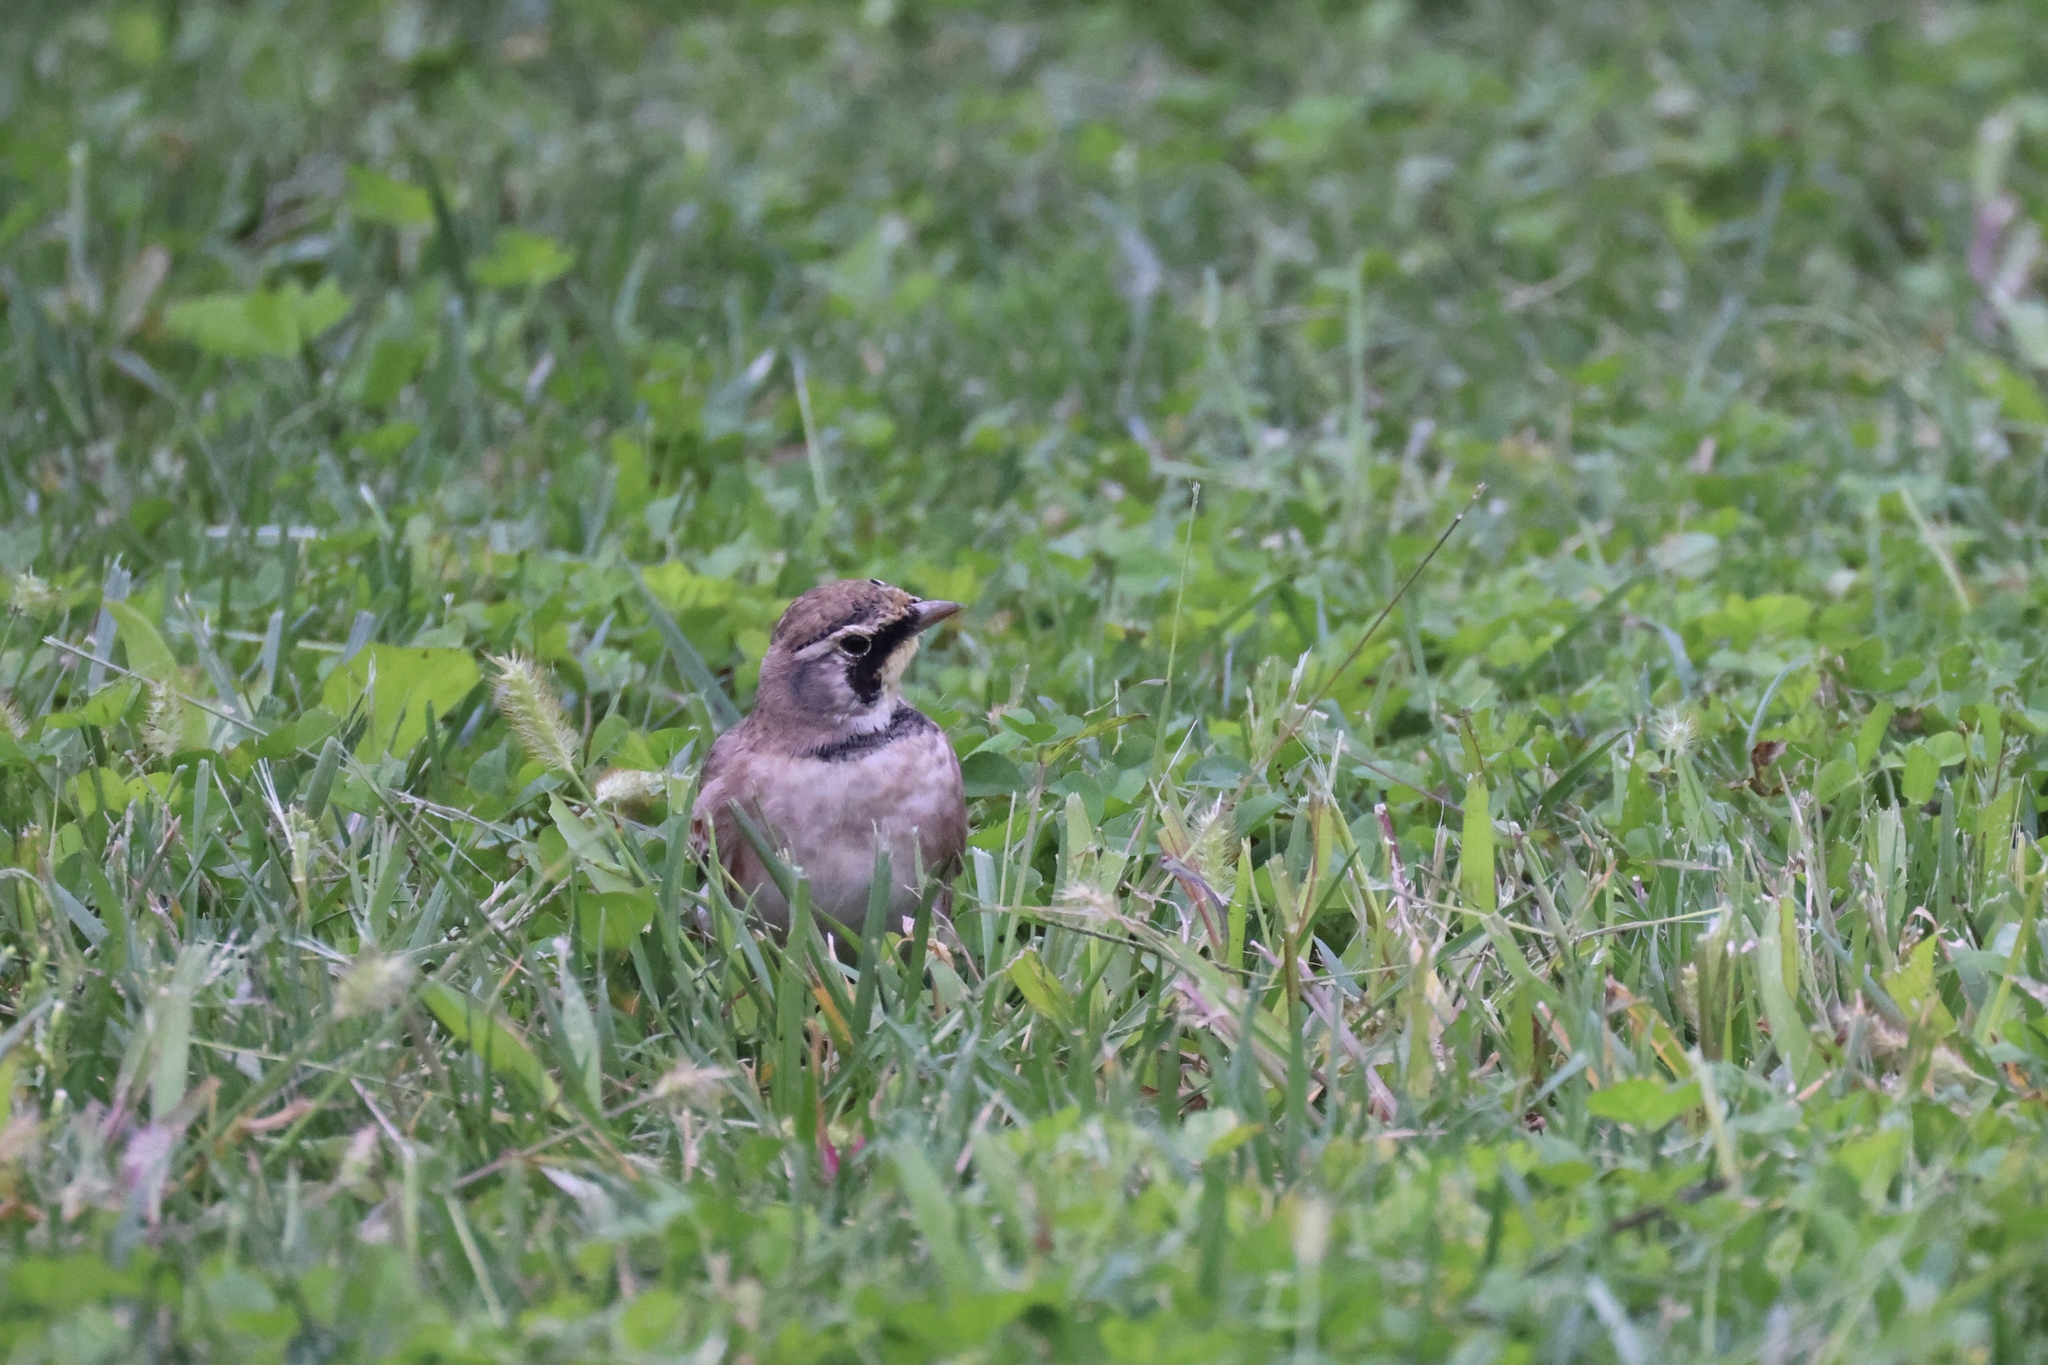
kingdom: Animalia
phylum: Chordata
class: Aves
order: Passeriformes
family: Alaudidae
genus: Eremophila
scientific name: Eremophila alpestris
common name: Horned lark
